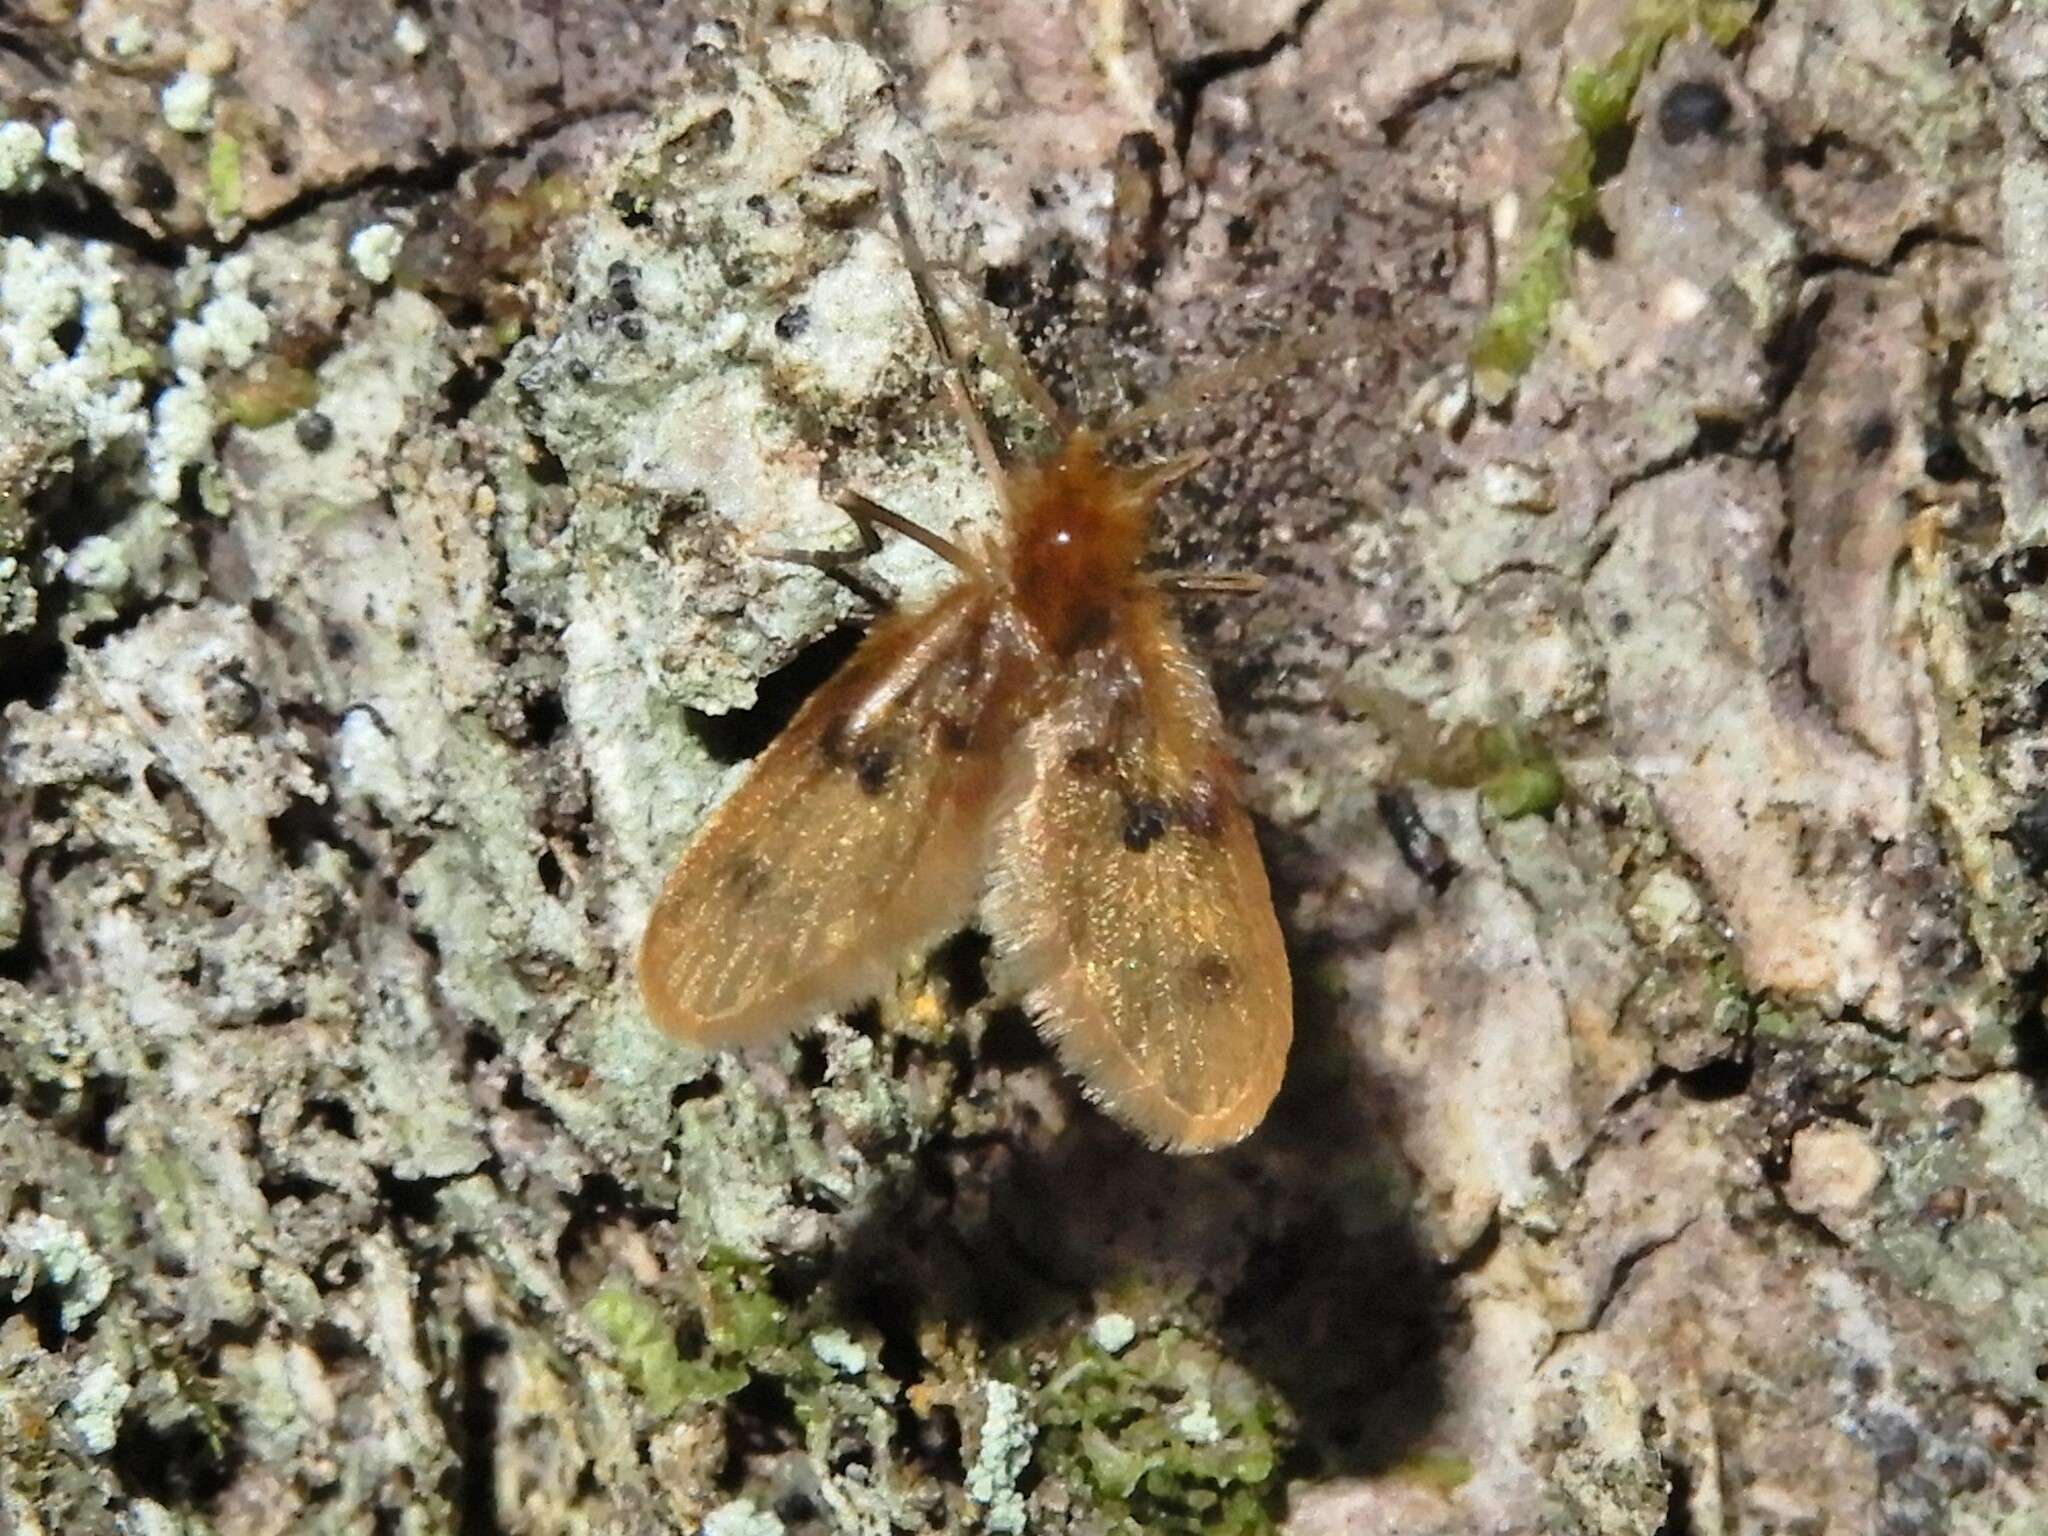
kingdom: Animalia
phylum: Arthropoda
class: Insecta
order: Diptera
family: Psychodidae
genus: Notofairchildia
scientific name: Notofairchildia zelandiae
